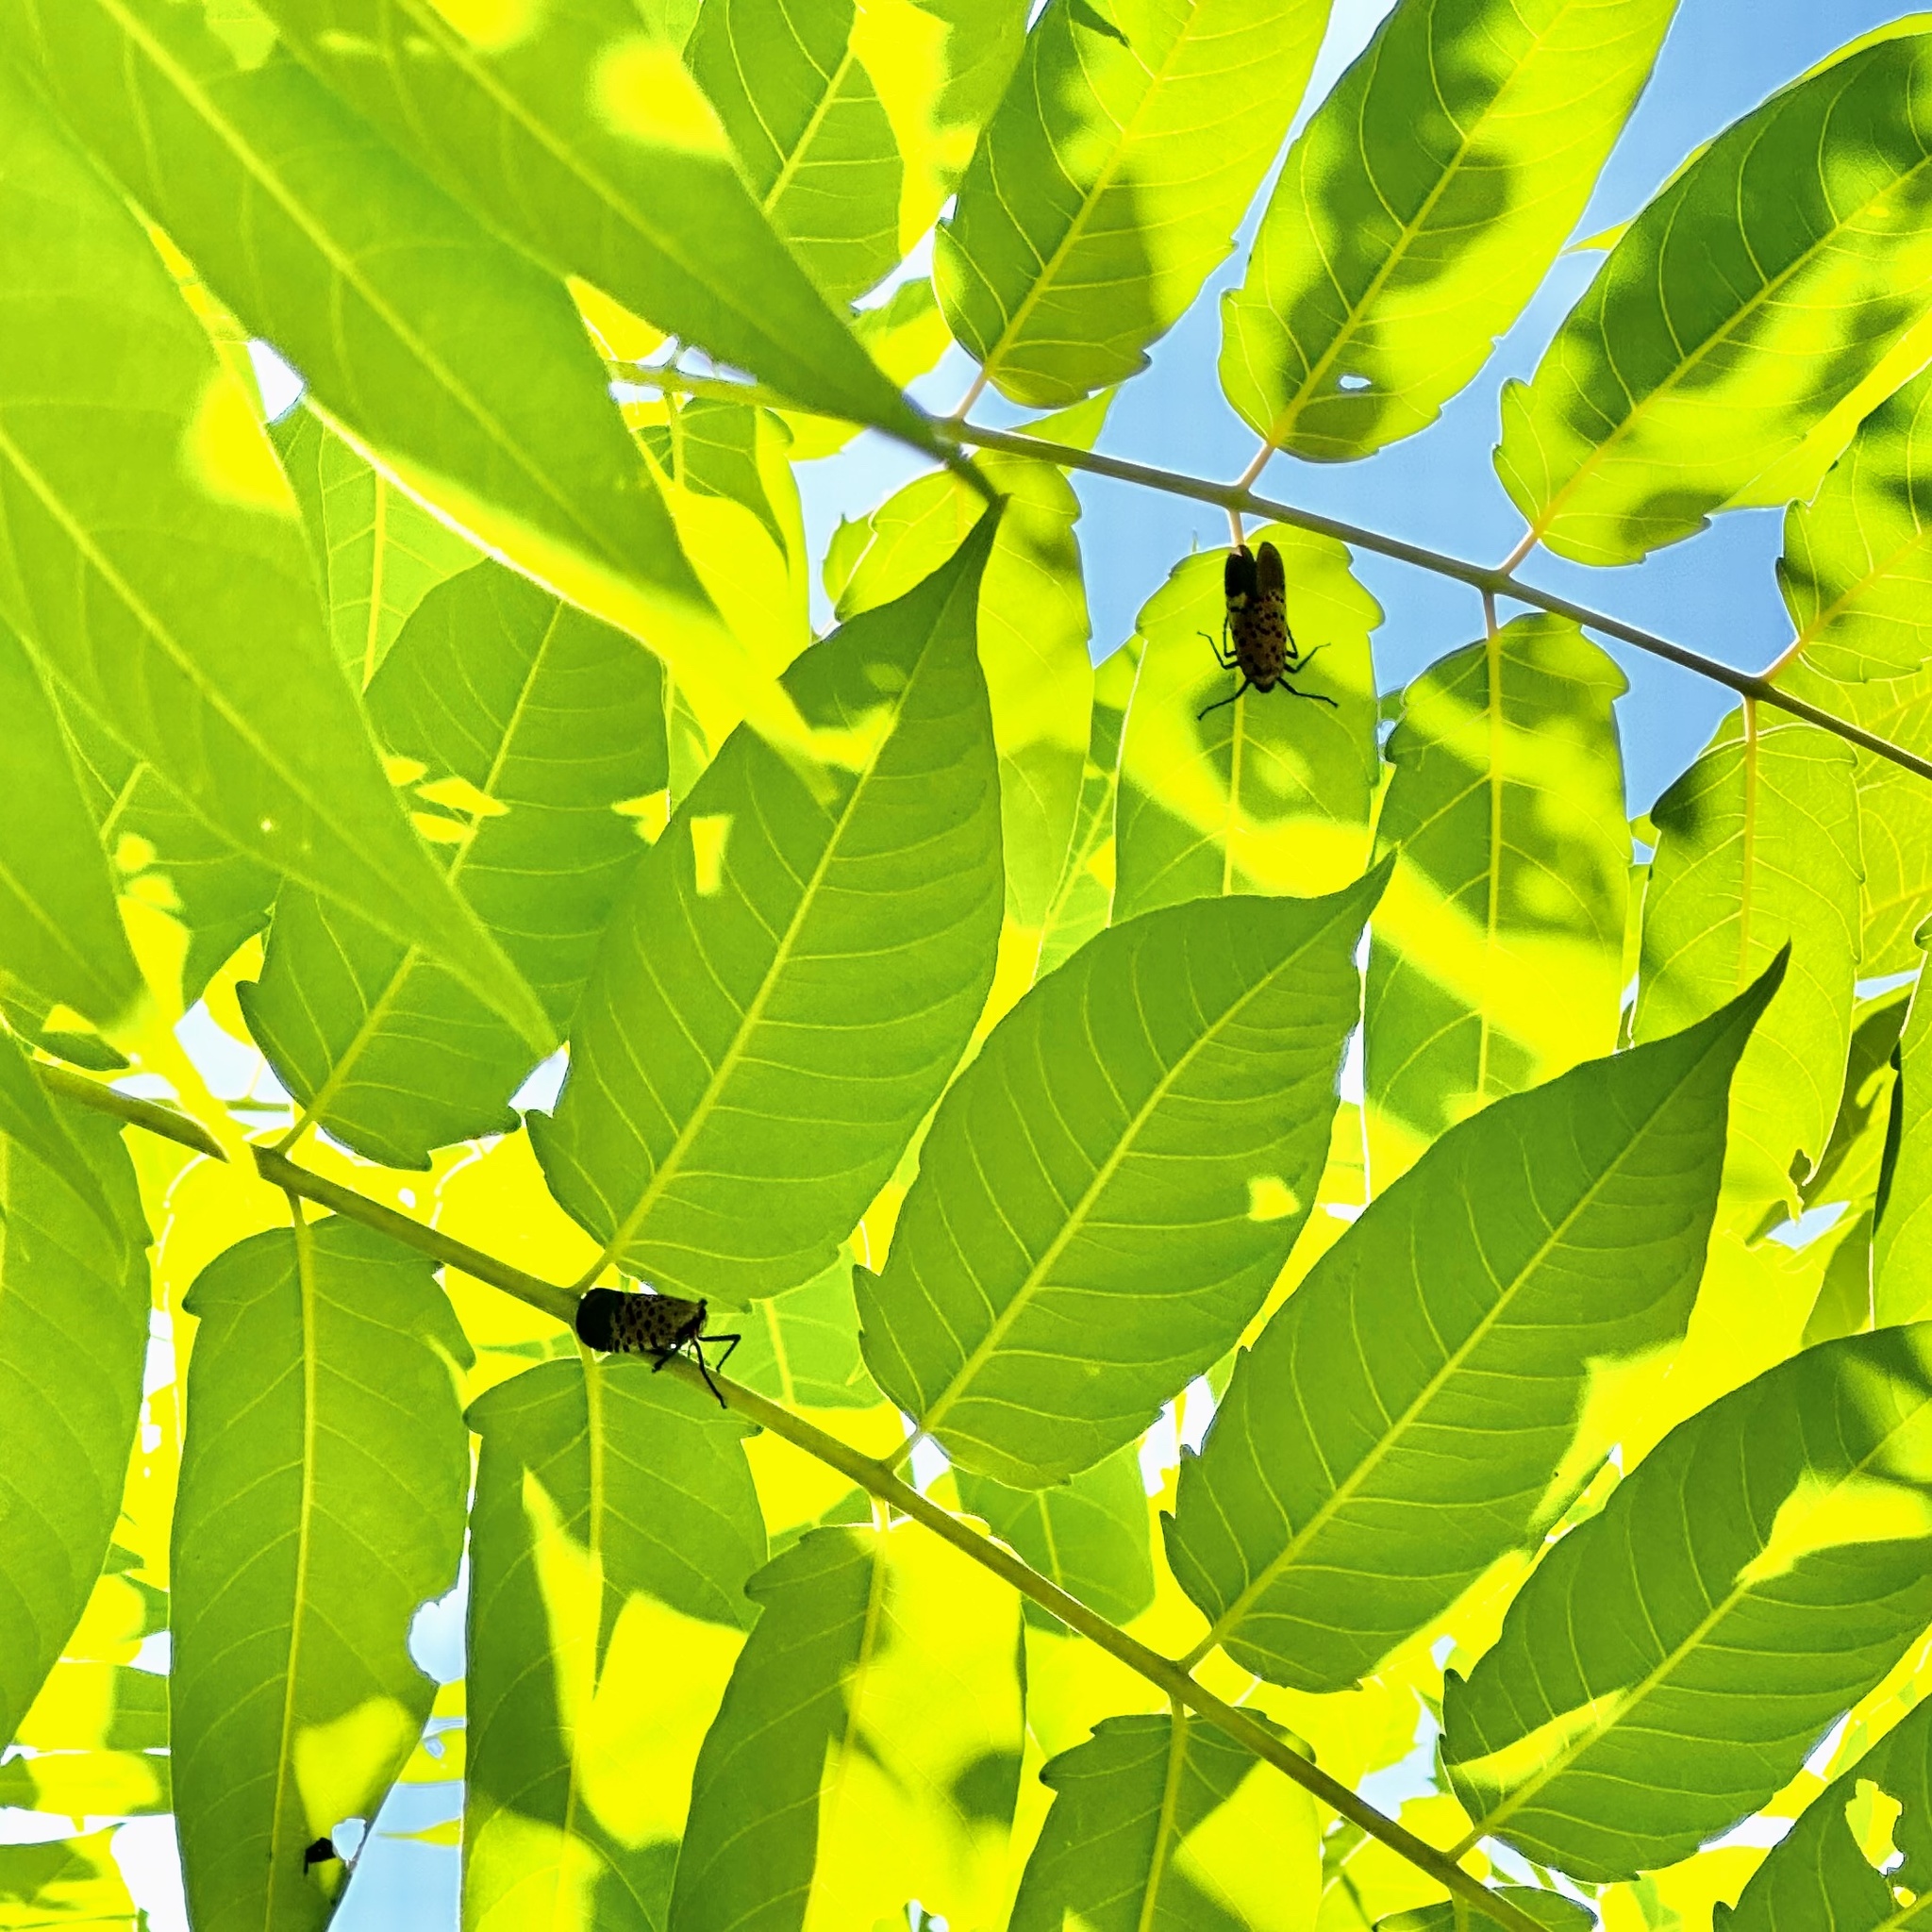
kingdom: Animalia
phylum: Arthropoda
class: Insecta
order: Hemiptera
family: Fulgoridae
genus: Lycorma
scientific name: Lycorma delicatula
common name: Spotted lanternfly
